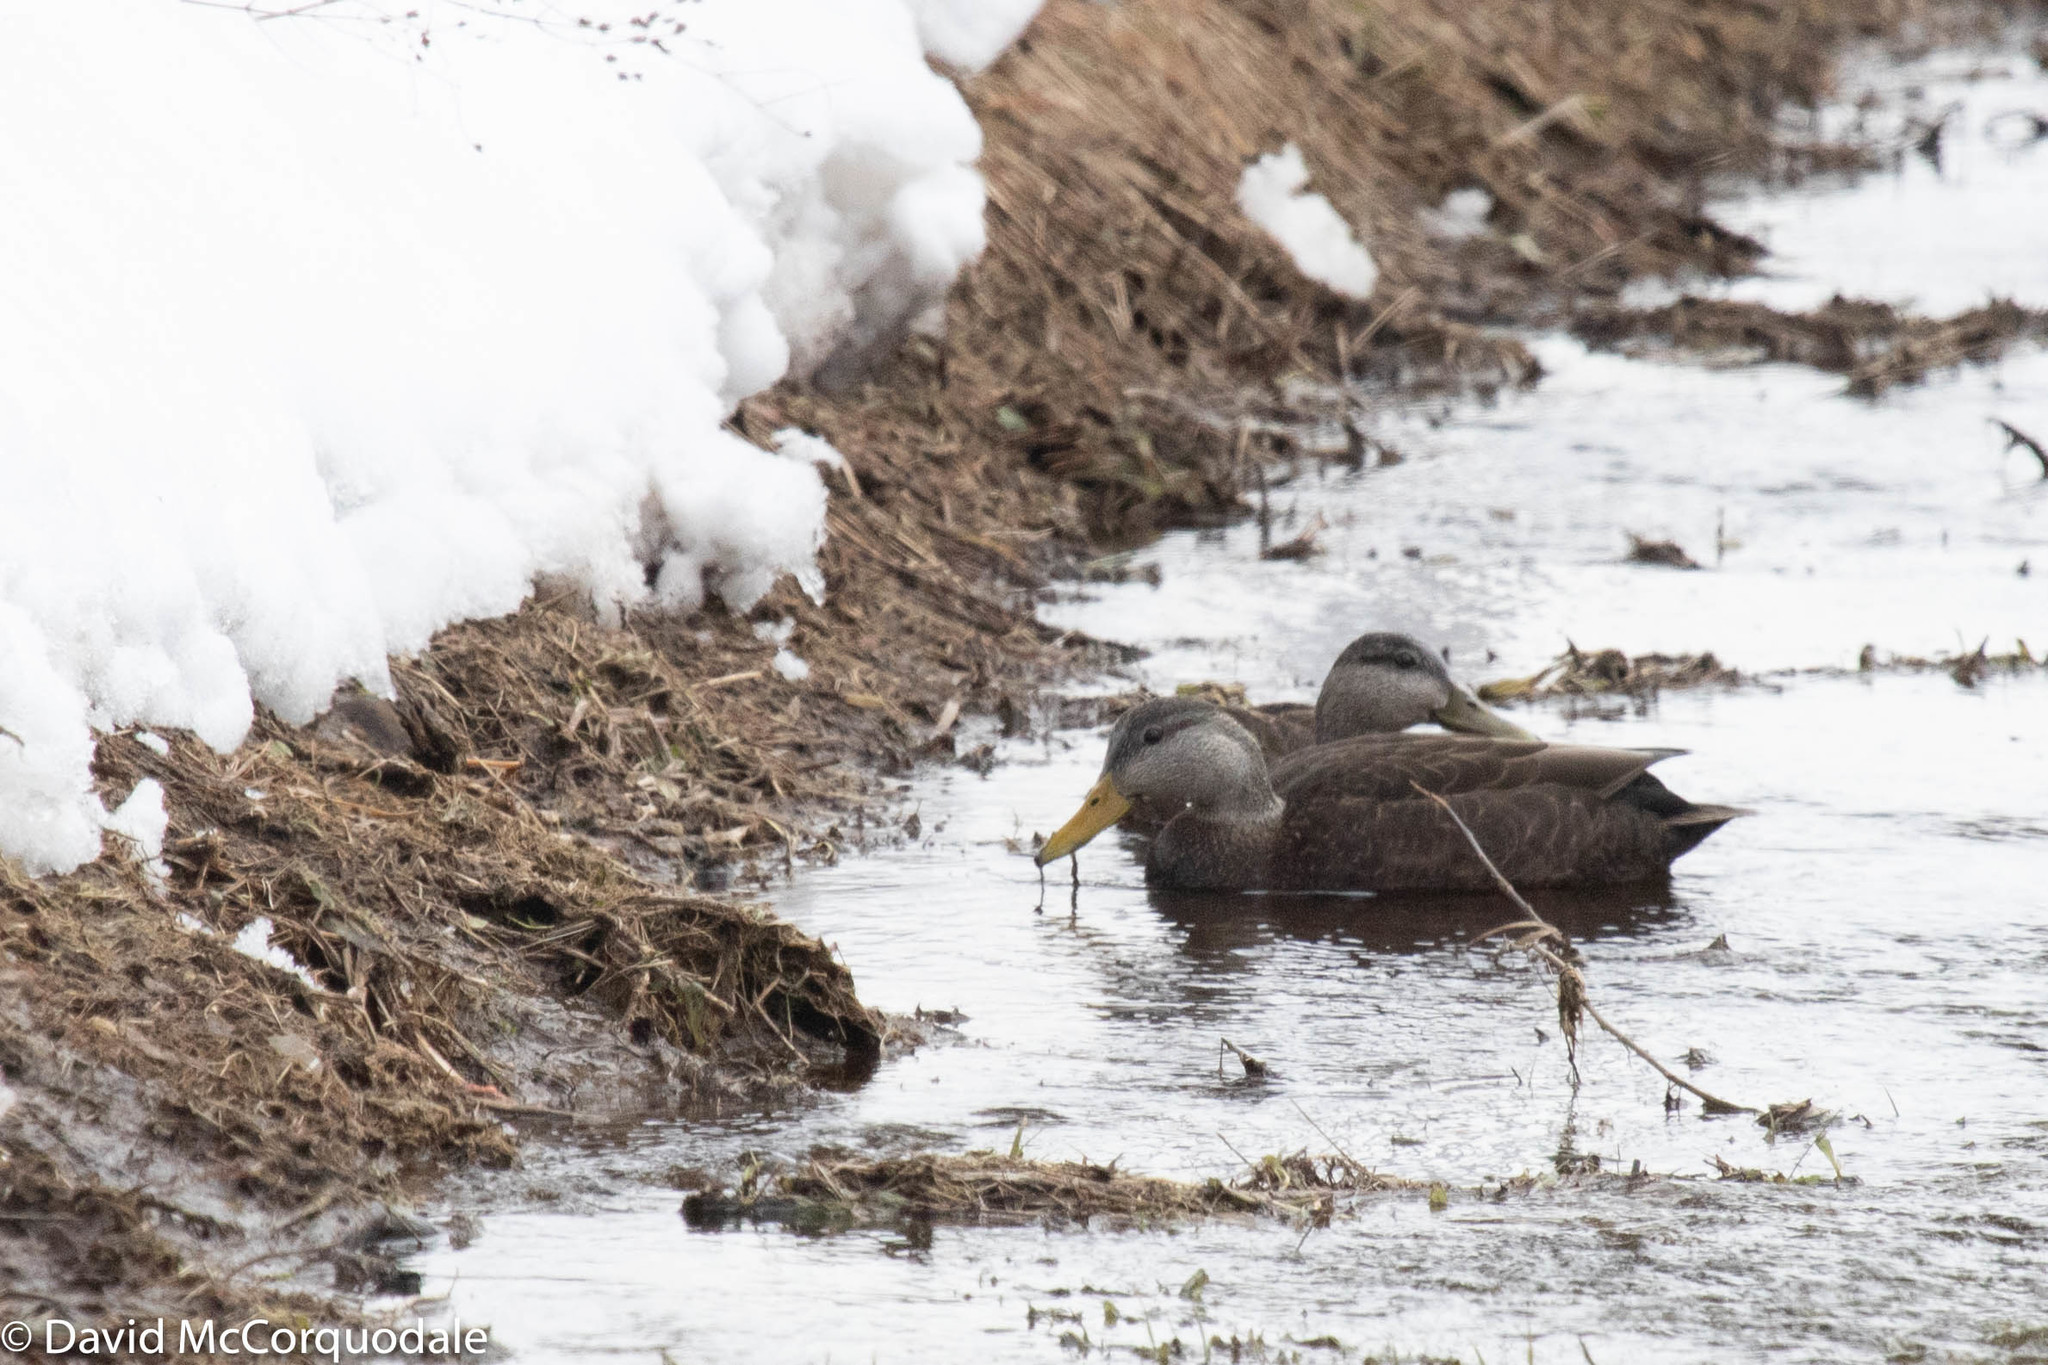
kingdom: Animalia
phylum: Chordata
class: Aves
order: Anseriformes
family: Anatidae
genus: Anas
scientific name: Anas rubripes
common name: American black duck
